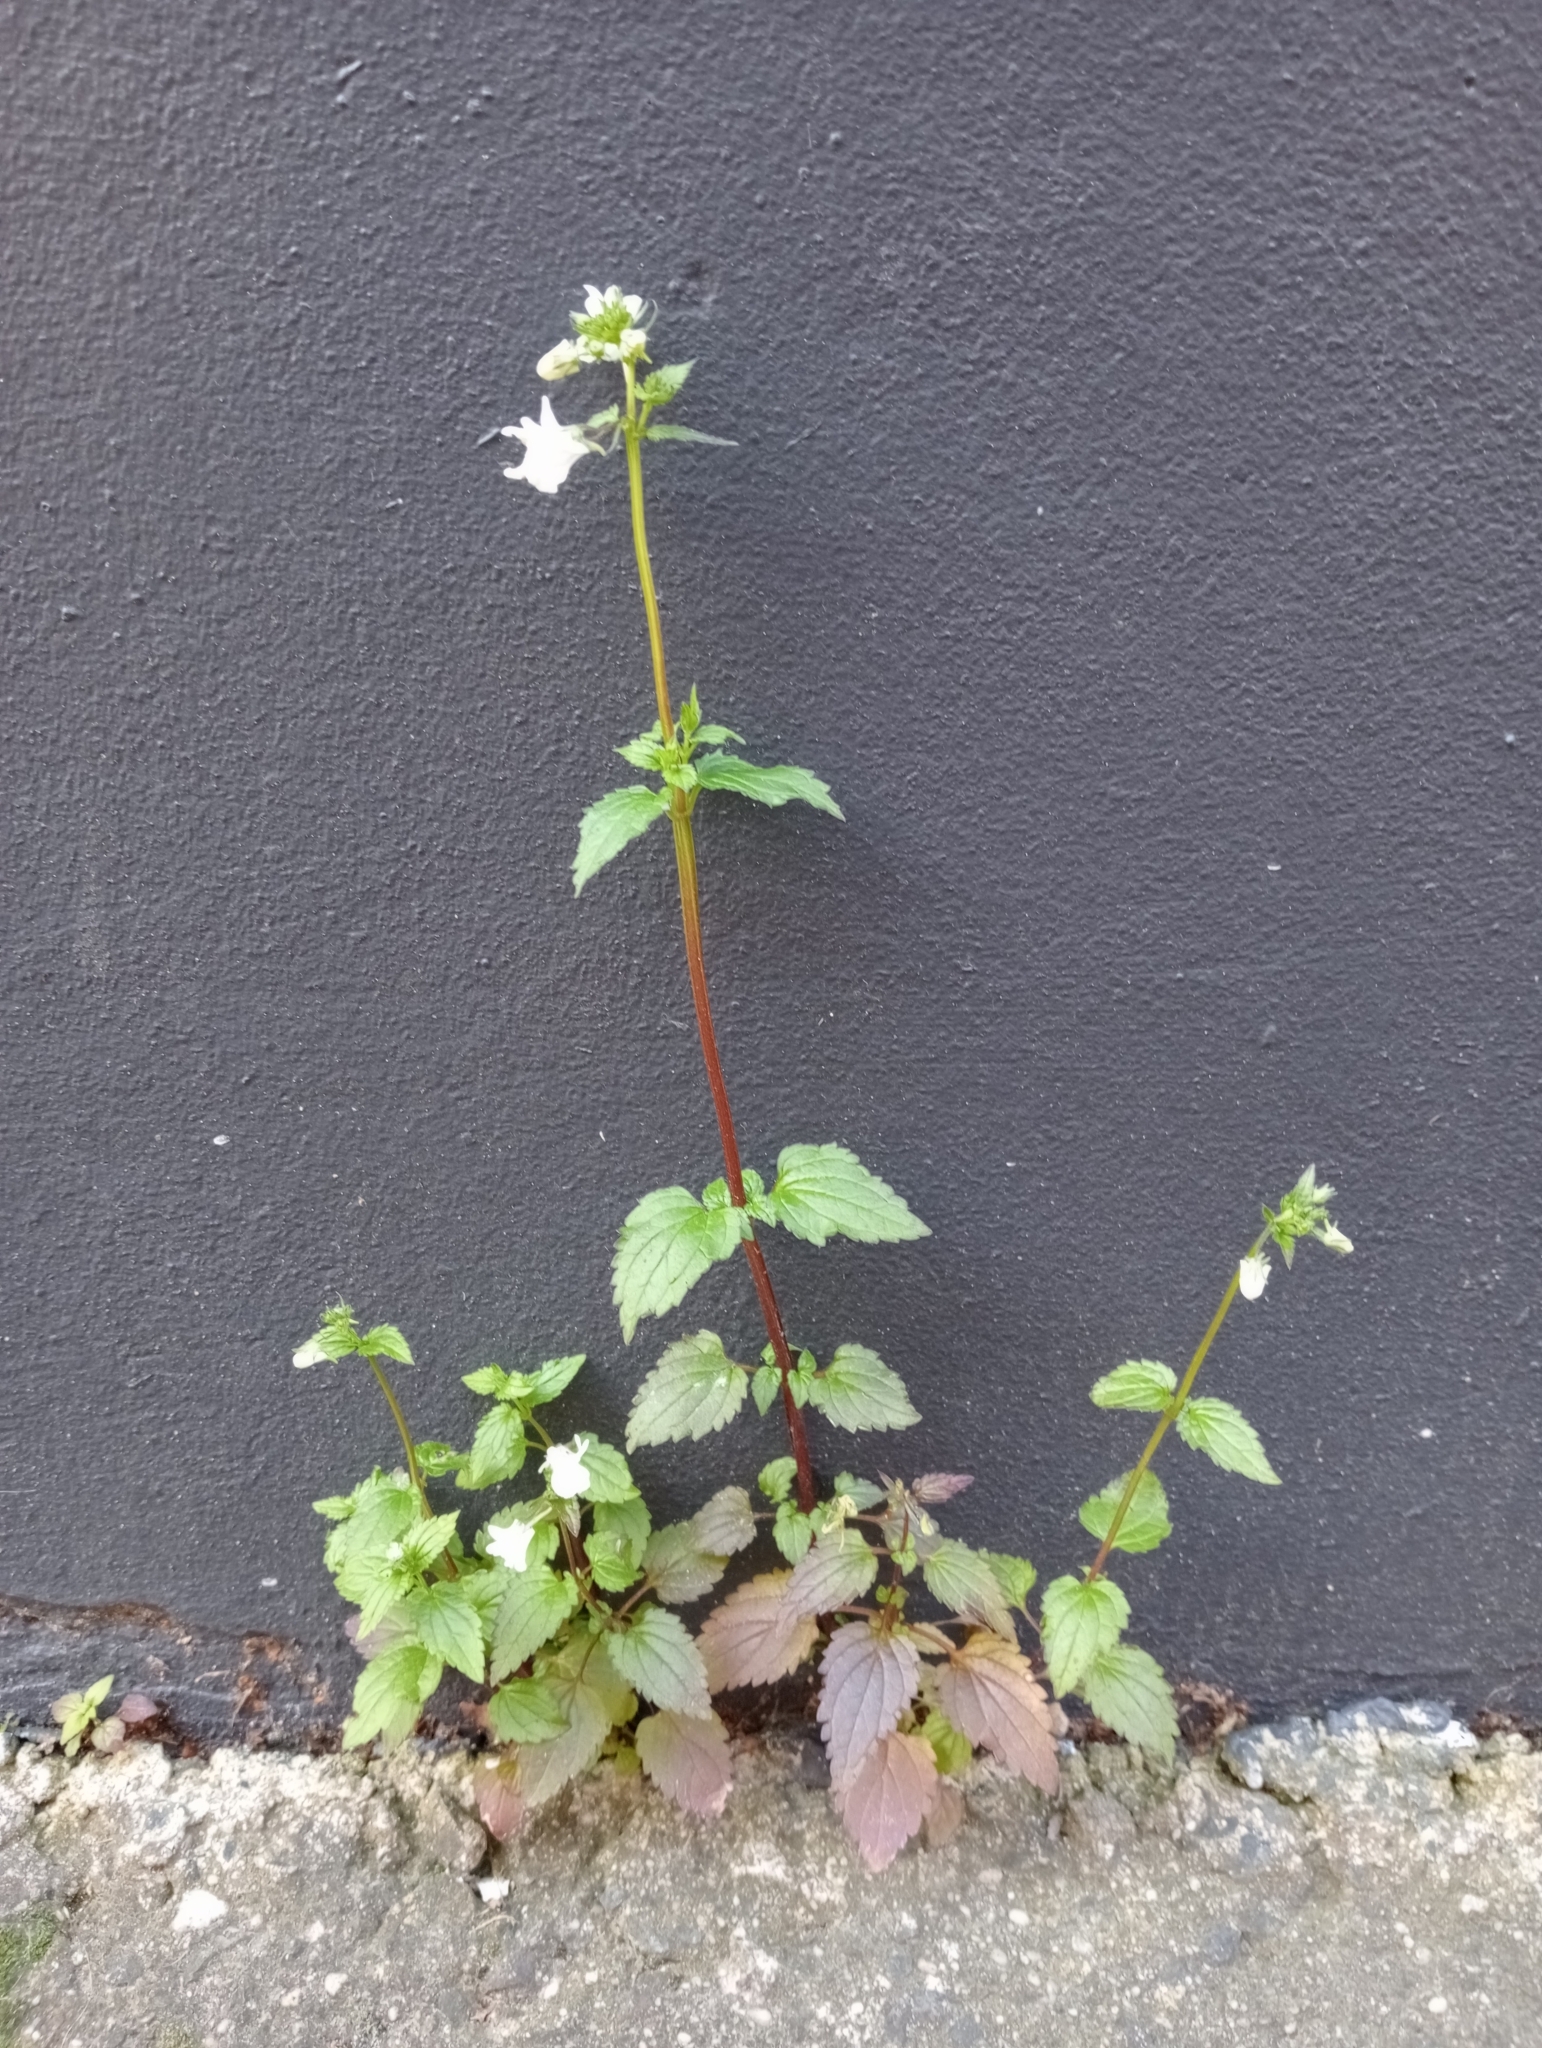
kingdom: Plantae
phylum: Tracheophyta
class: Magnoliopsida
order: Lamiales
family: Scrophulariaceae
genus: Nemesia
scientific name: Nemesia floribunda
